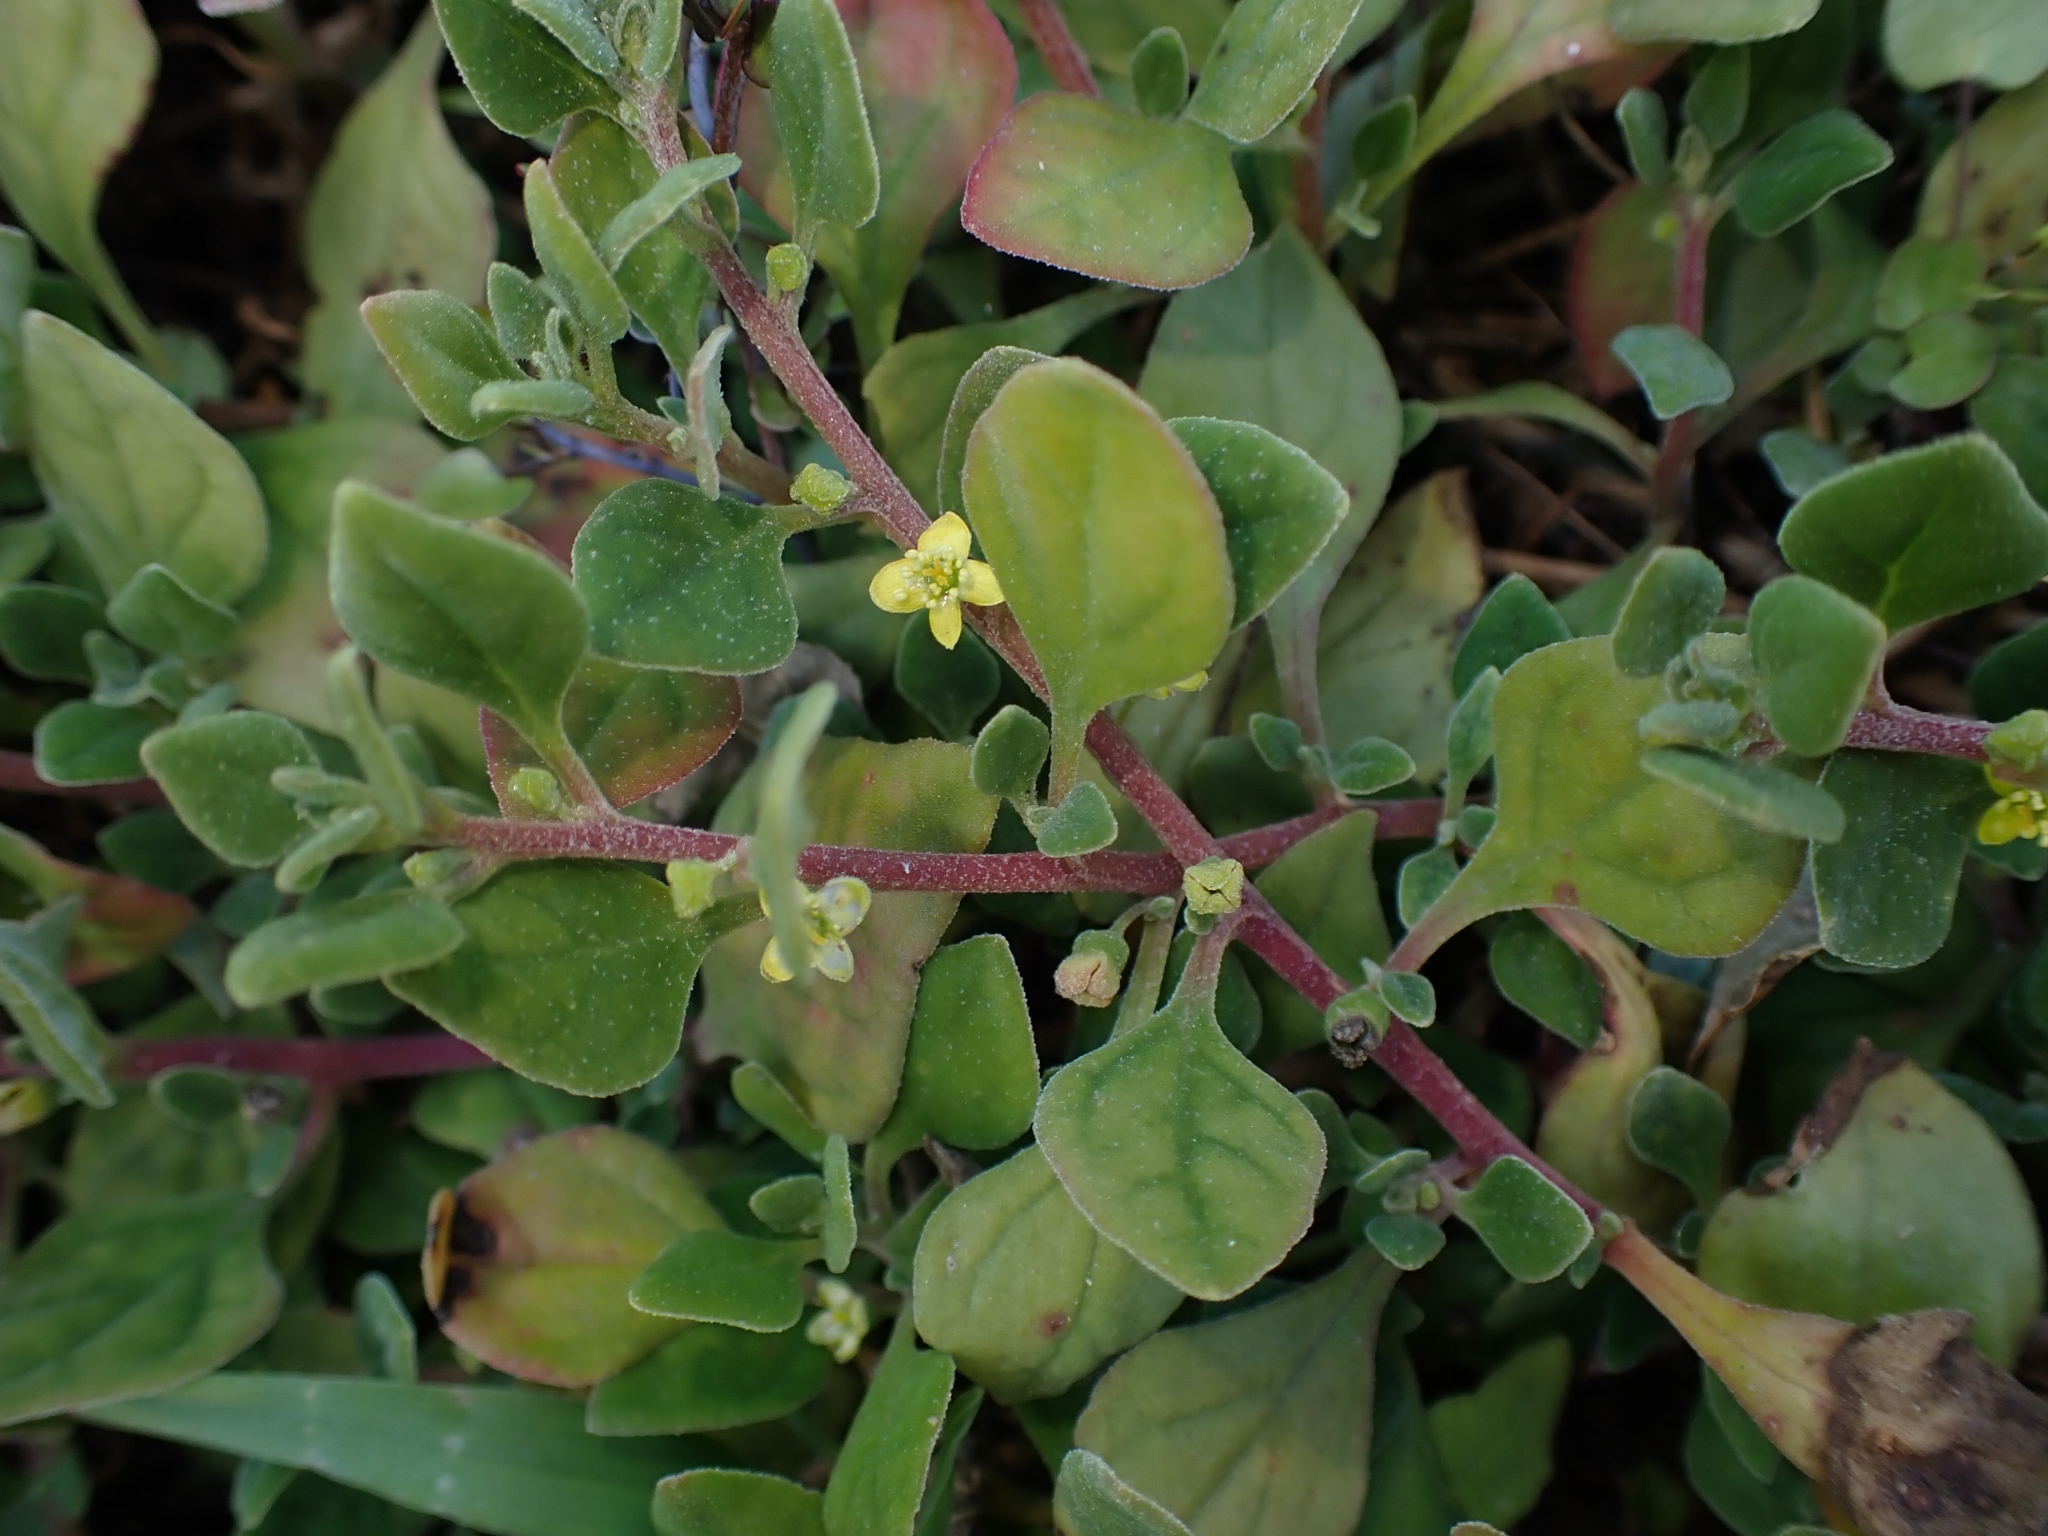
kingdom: Plantae
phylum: Tracheophyta
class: Magnoliopsida
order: Caryophyllales
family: Aizoaceae
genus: Tetragonia
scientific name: Tetragonia implexicoma
